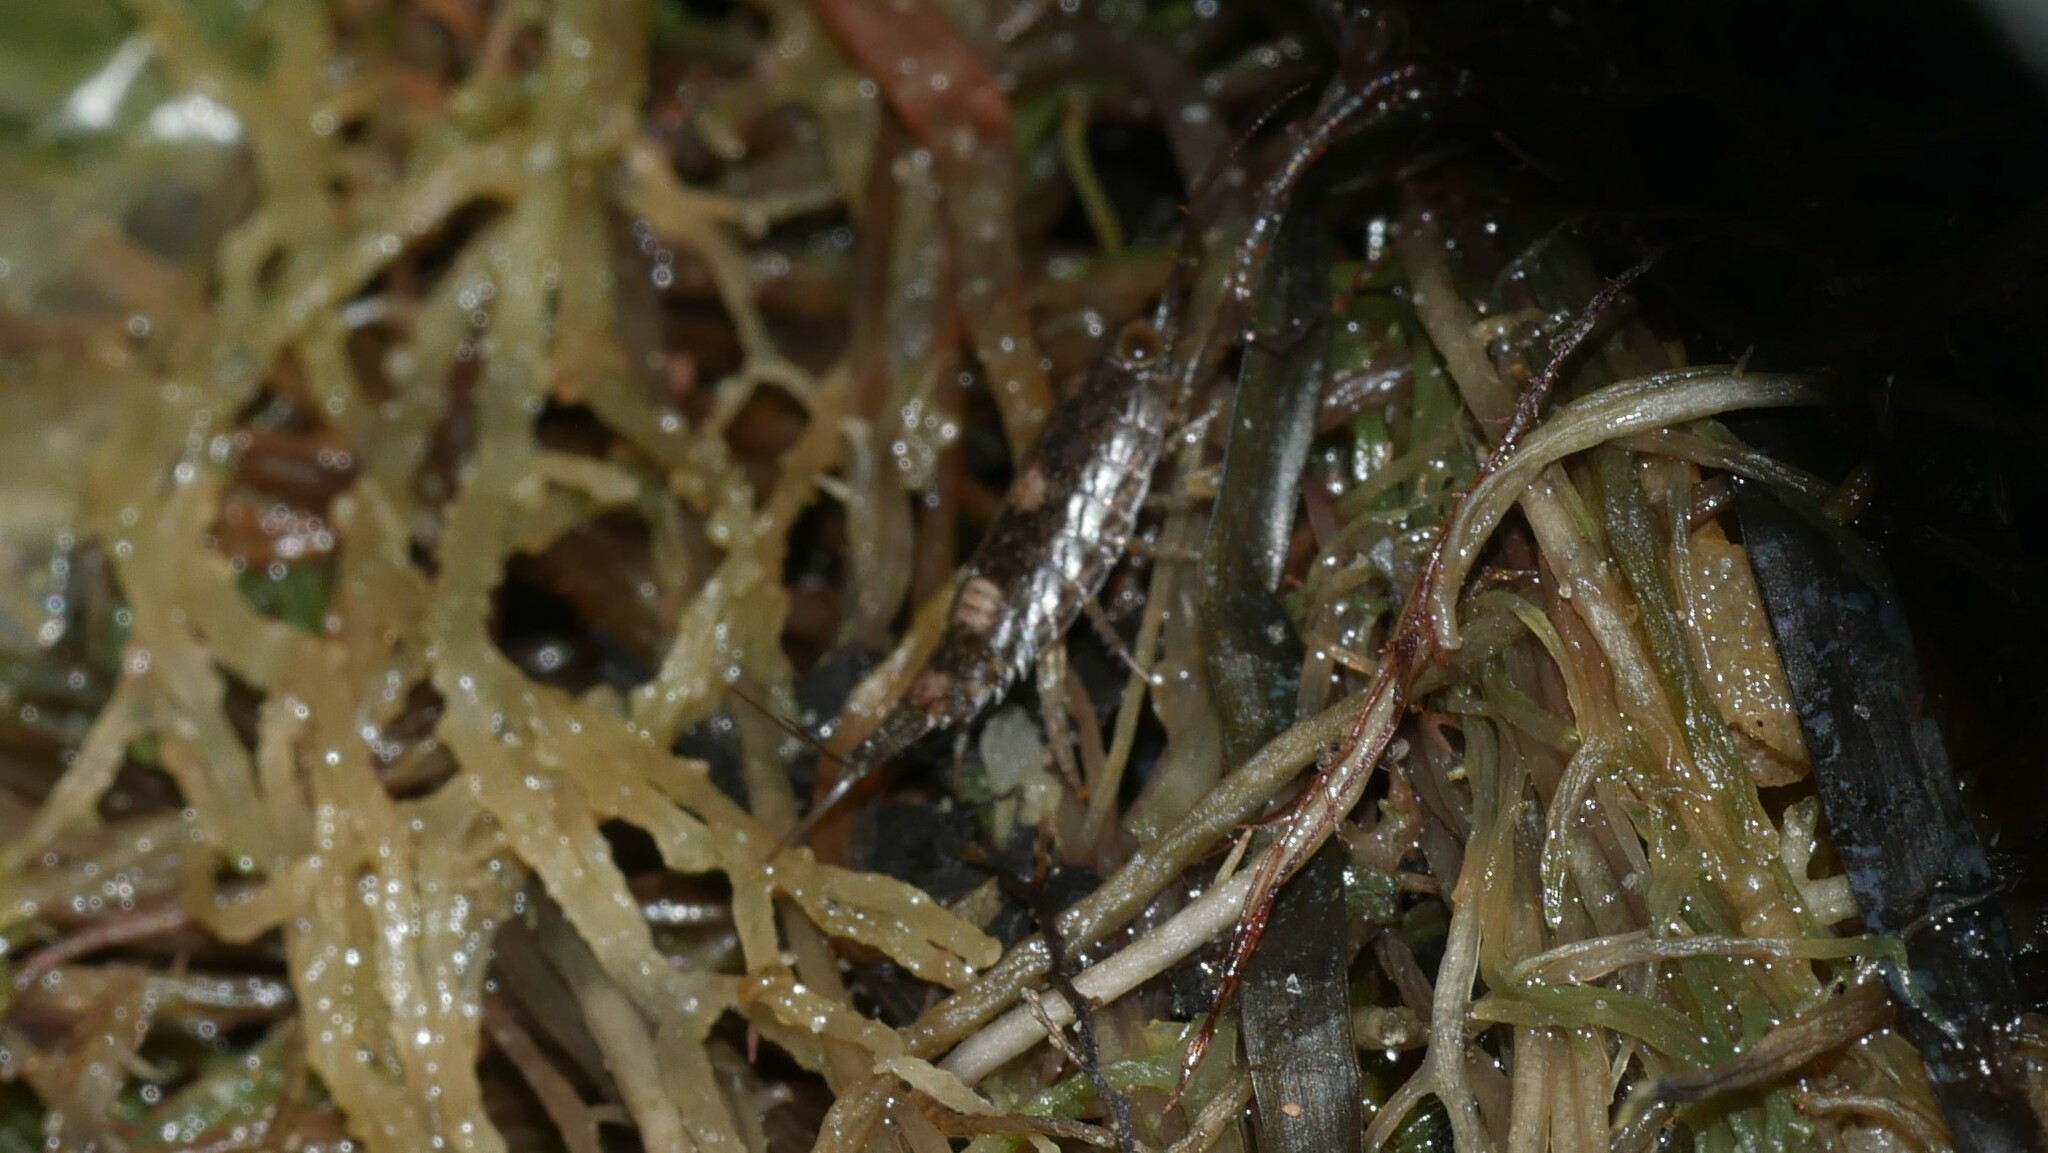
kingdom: Animalia
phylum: Arthropoda
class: Malacostraca
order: Isopoda
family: Ligiidae
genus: Ligia
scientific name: Ligia exotica
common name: Wharf roach
